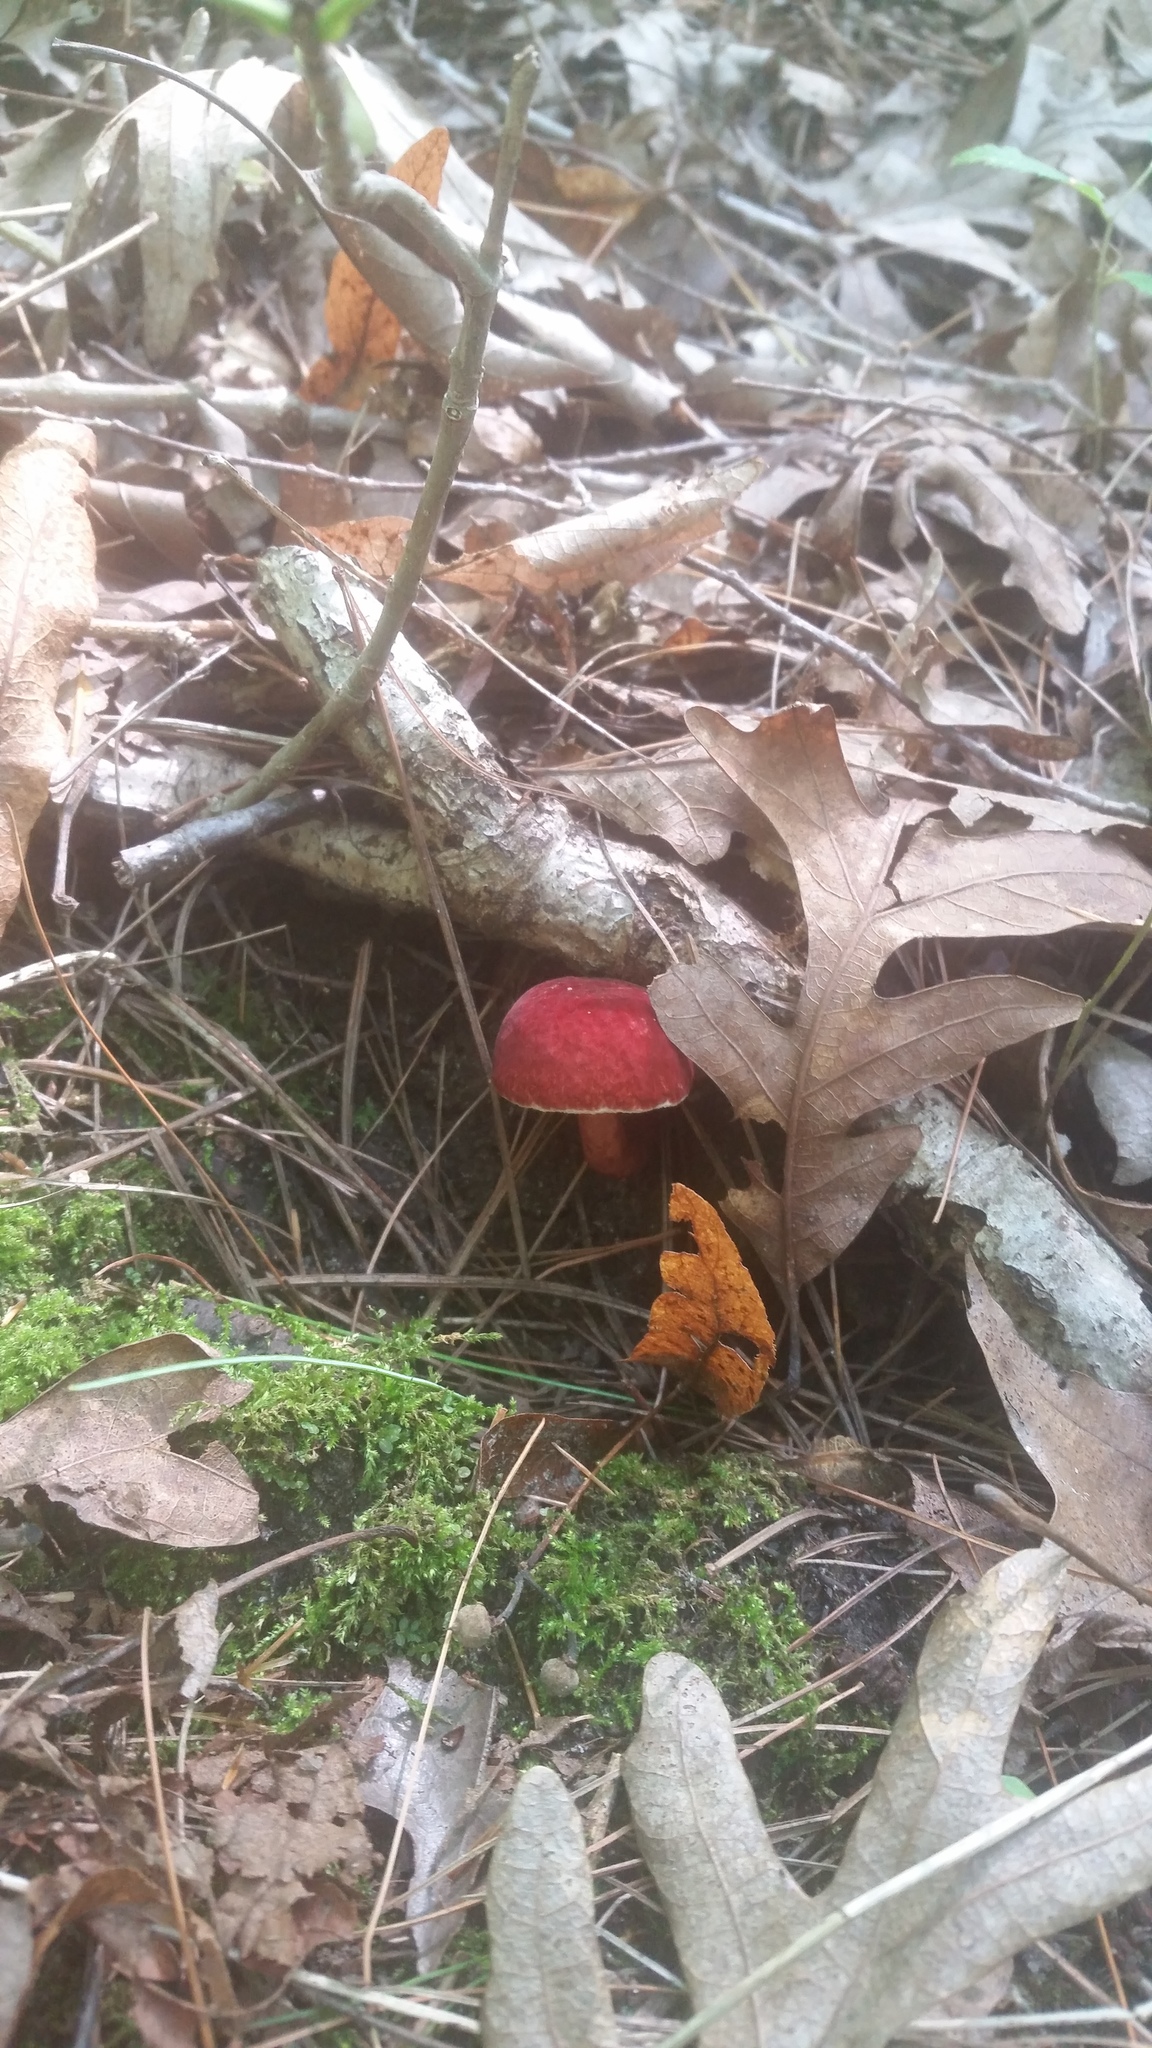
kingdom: Fungi
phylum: Basidiomycota
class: Agaricomycetes
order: Boletales
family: Gyroporaceae
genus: Gyroporus
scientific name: Gyroporus purpurinus
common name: Red gyroporus
